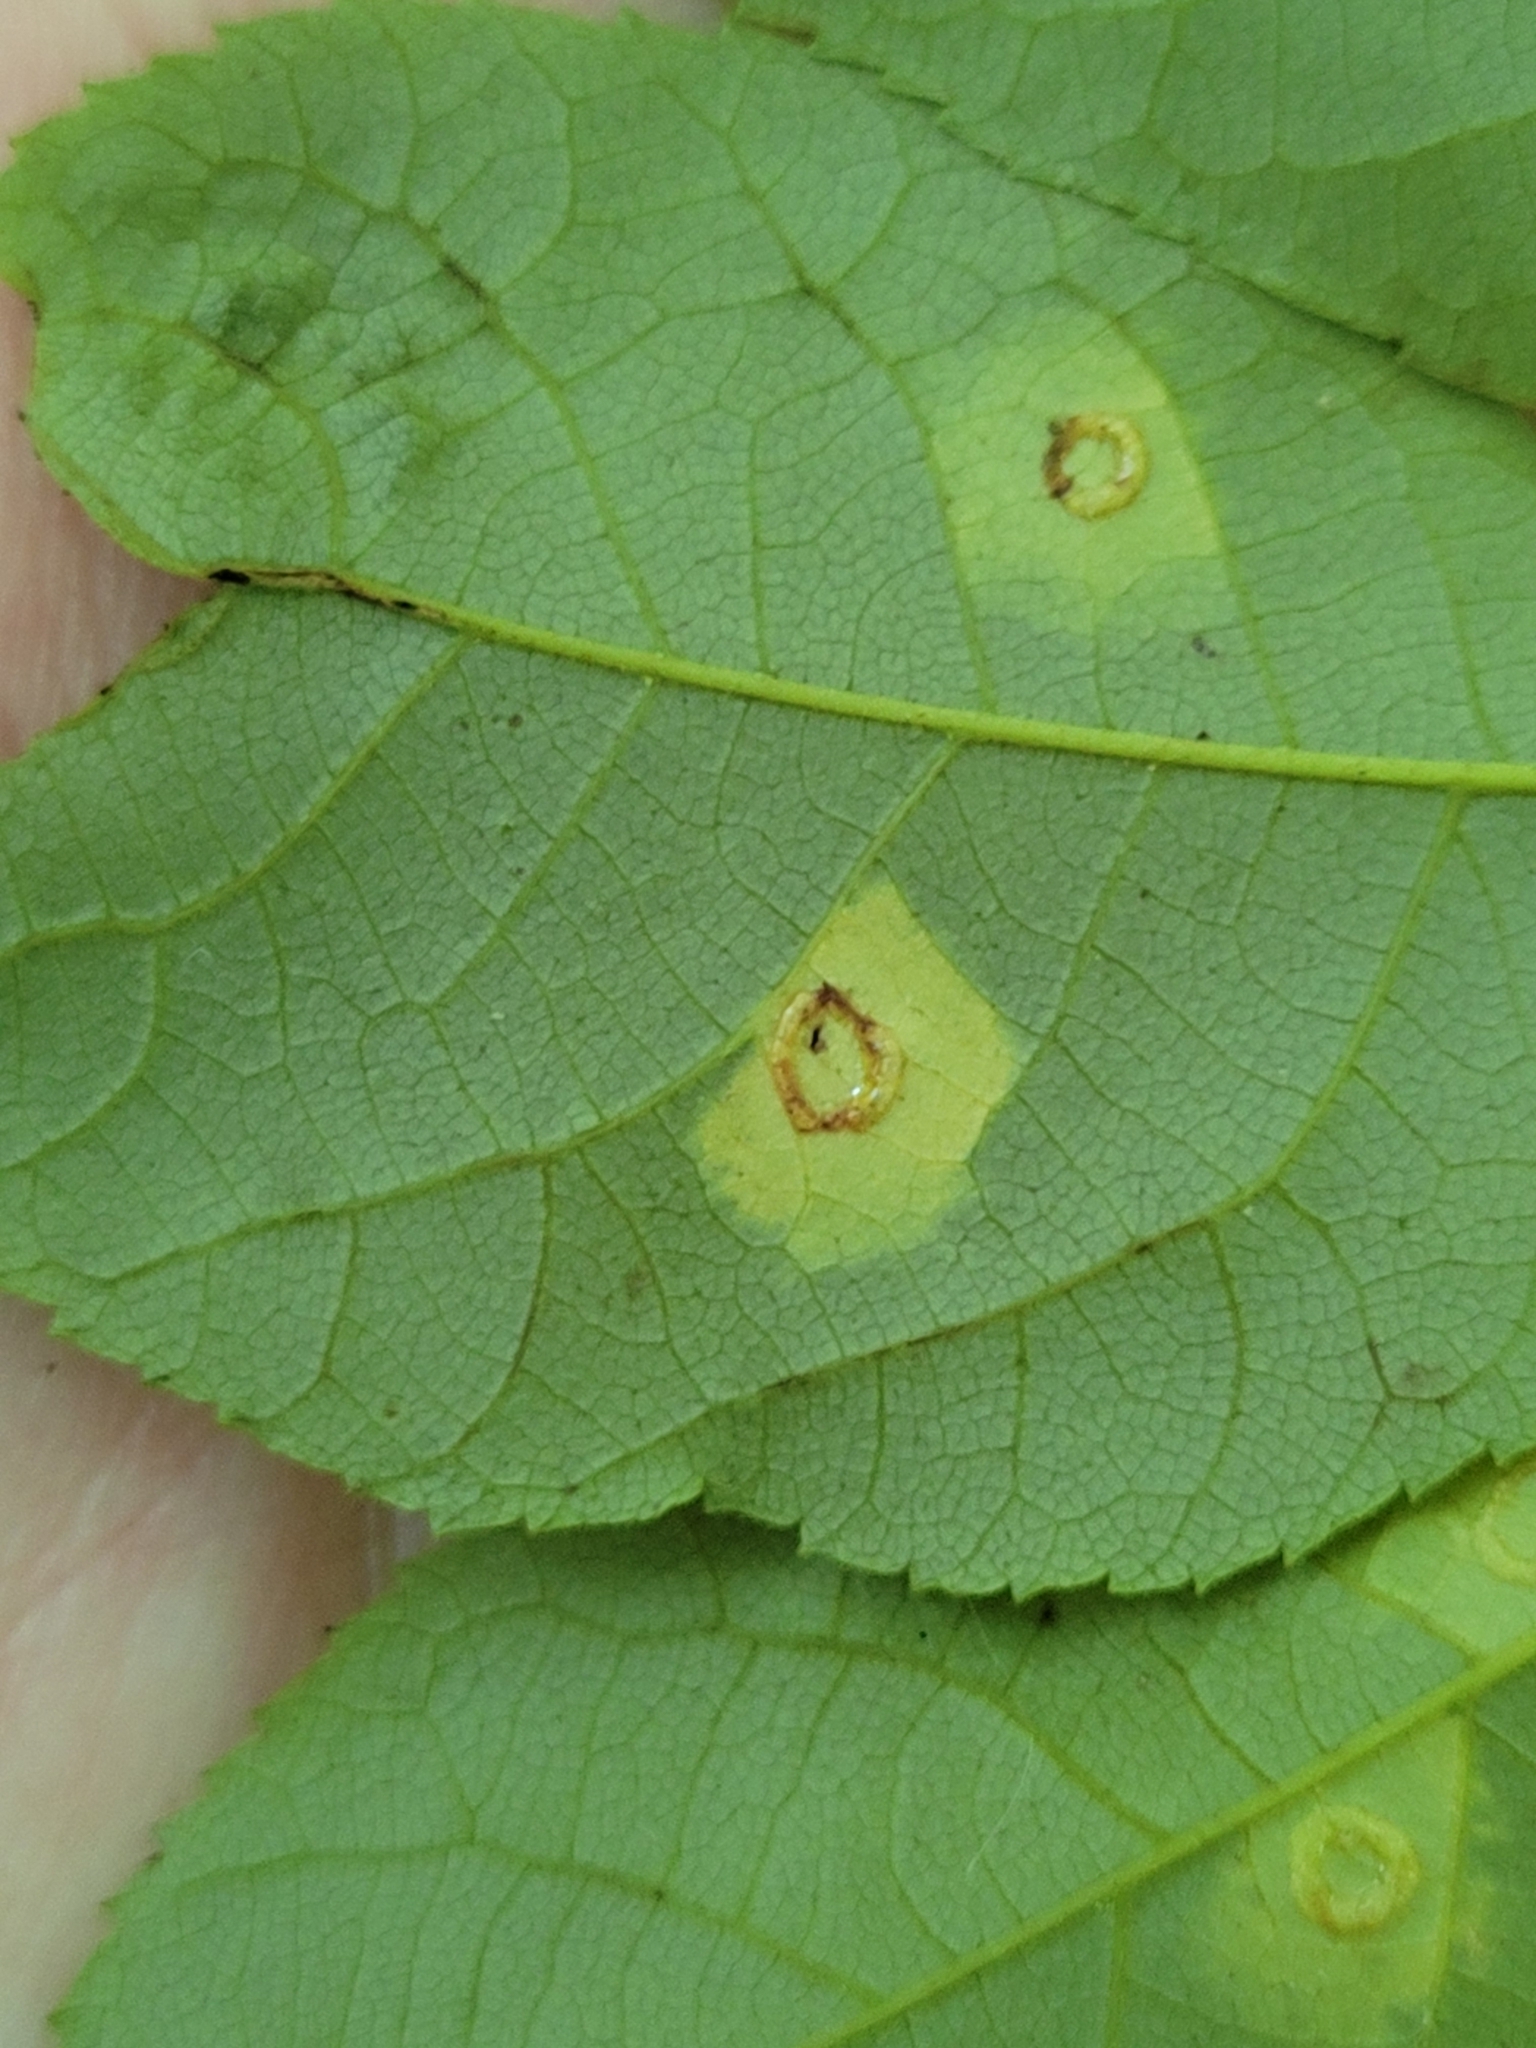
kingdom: Animalia
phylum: Arthropoda
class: Insecta
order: Diptera
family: Cecidomyiidae
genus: Gliaspilota
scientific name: Gliaspilota glutinosa
